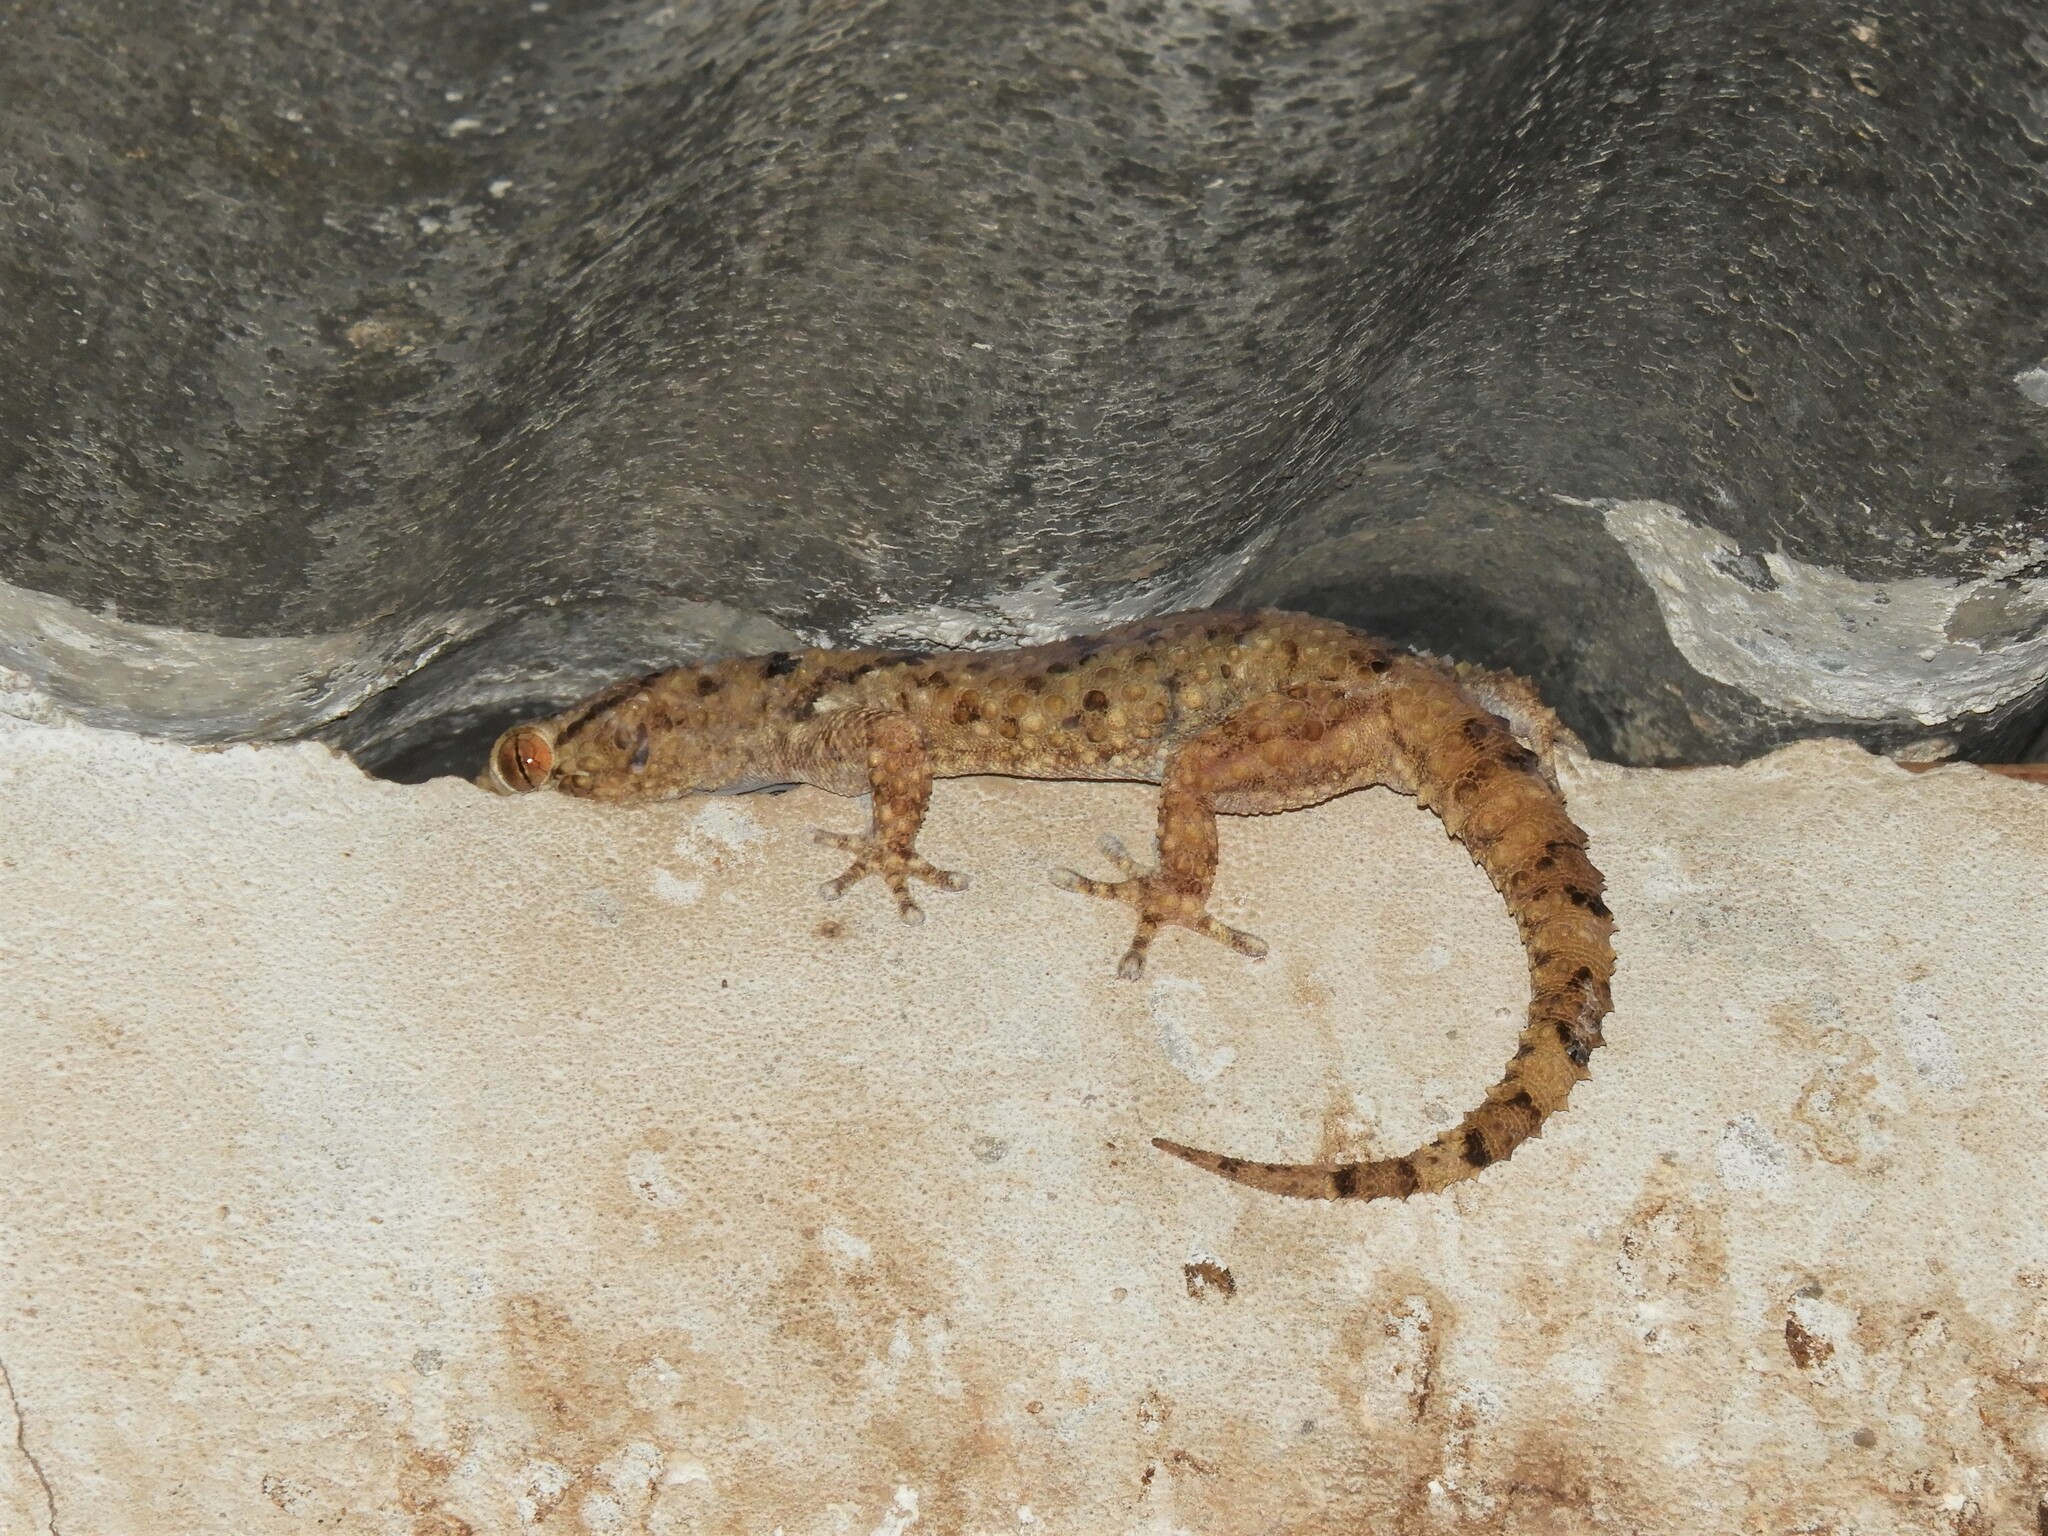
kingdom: Animalia
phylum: Chordata
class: Squamata
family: Gekkonidae
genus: Chondrodactylus
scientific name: Chondrodactylus laevigatus
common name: Fischer's thick-toed gecko
